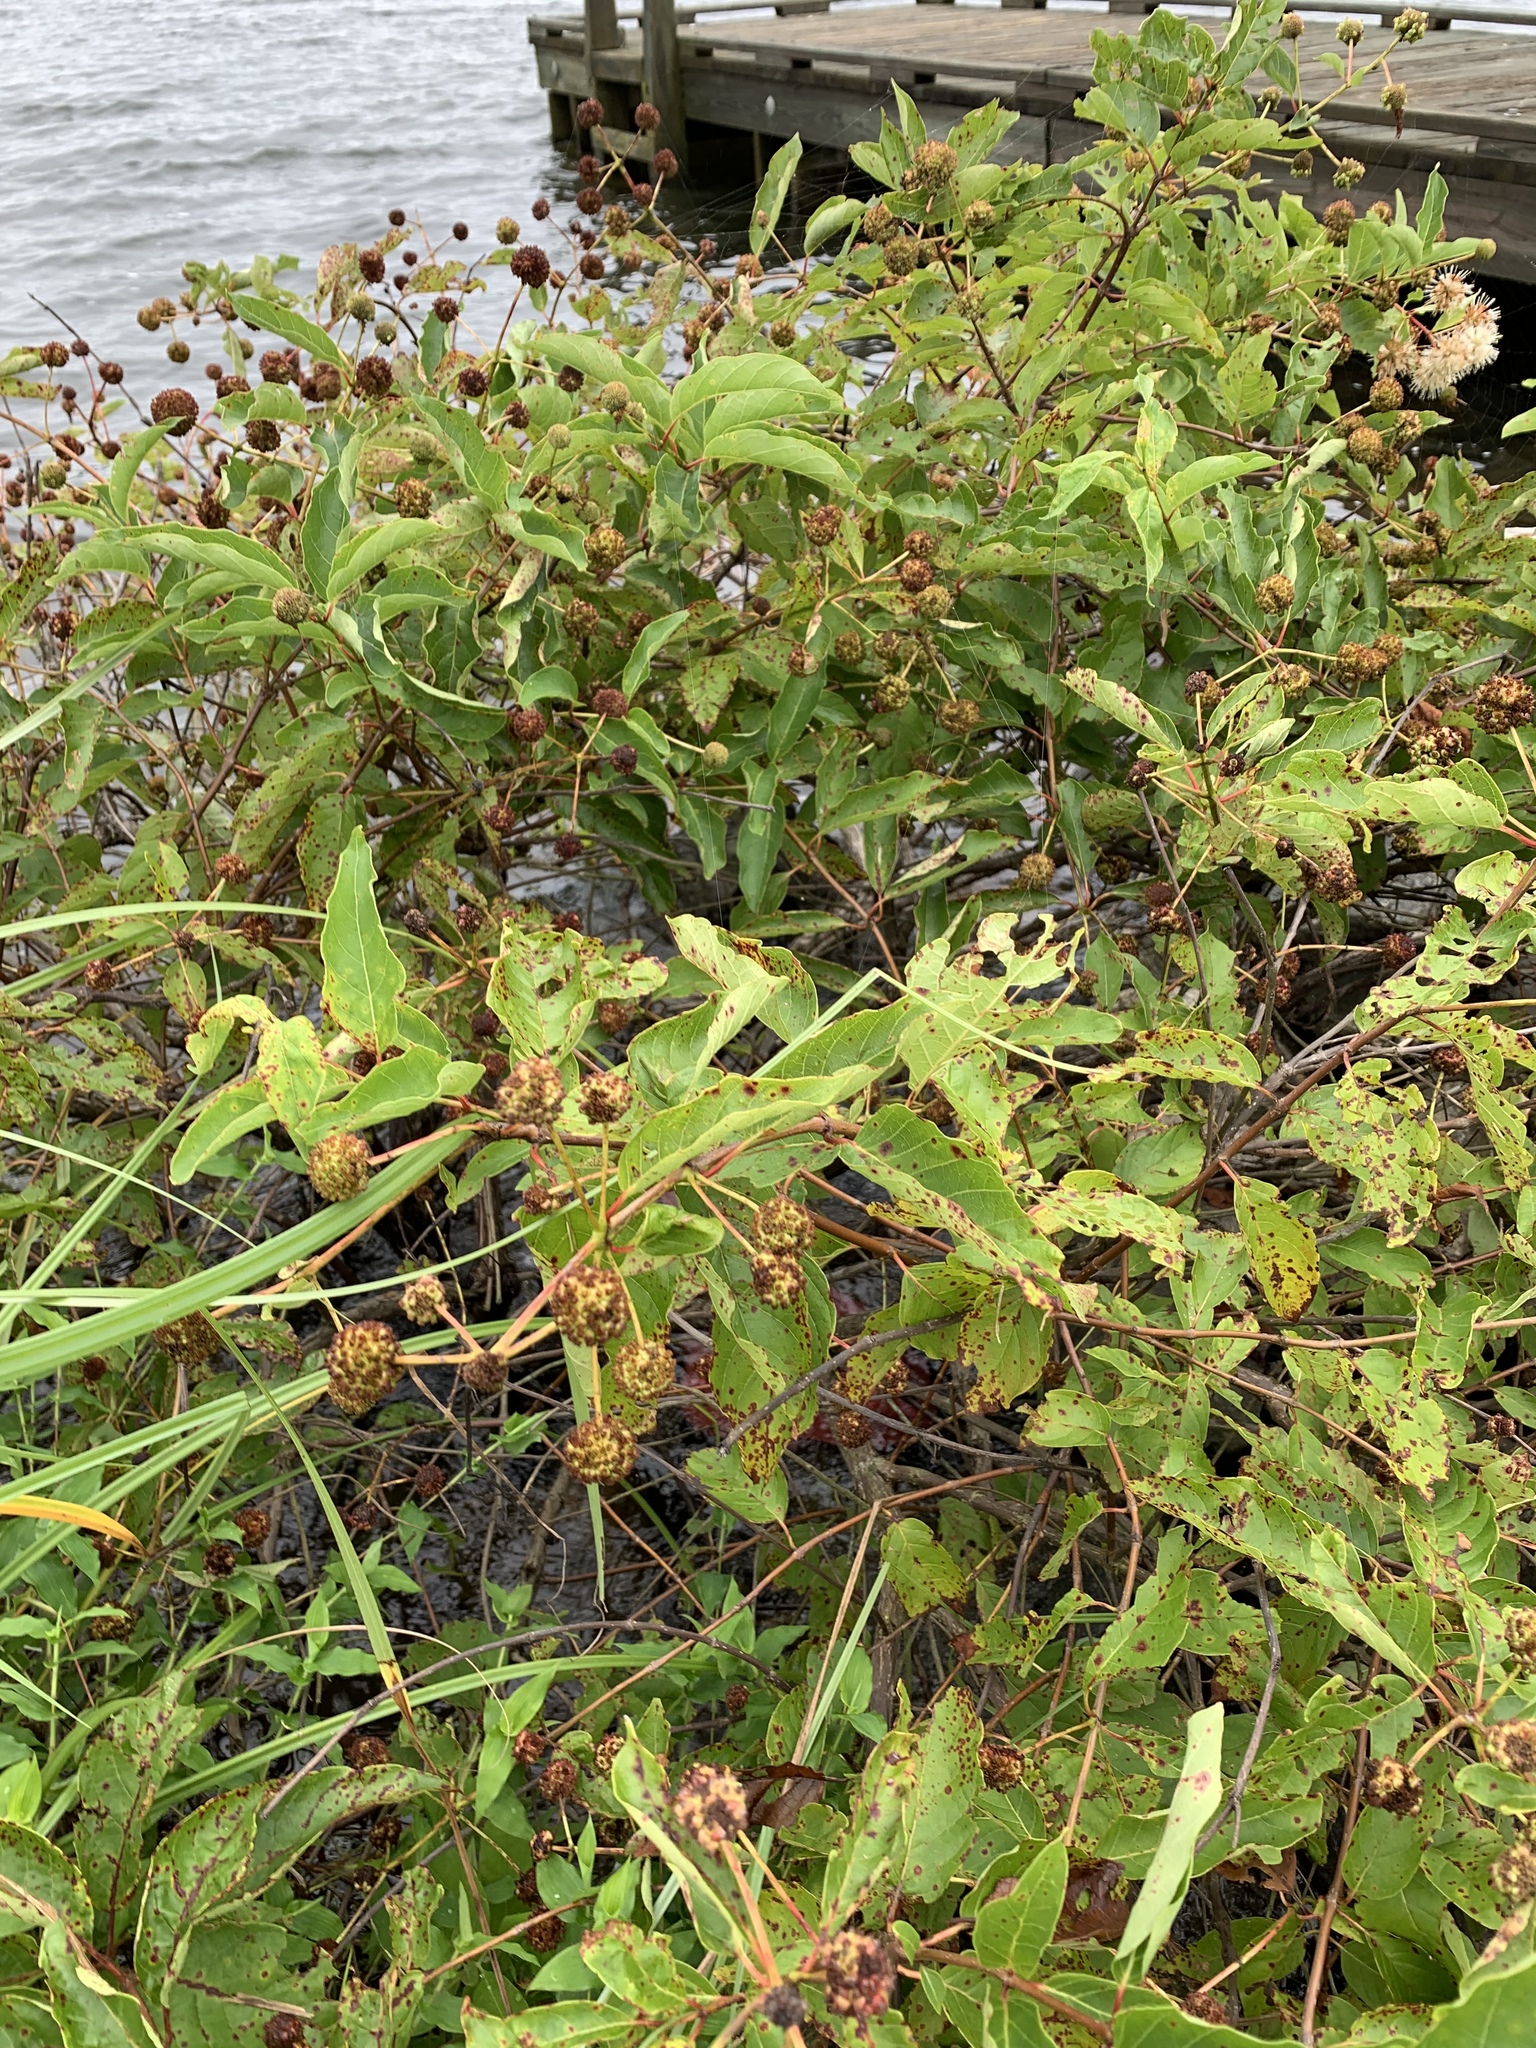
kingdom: Plantae
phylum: Tracheophyta
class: Magnoliopsida
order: Gentianales
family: Rubiaceae
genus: Cephalanthus
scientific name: Cephalanthus occidentalis
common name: Button-willow
